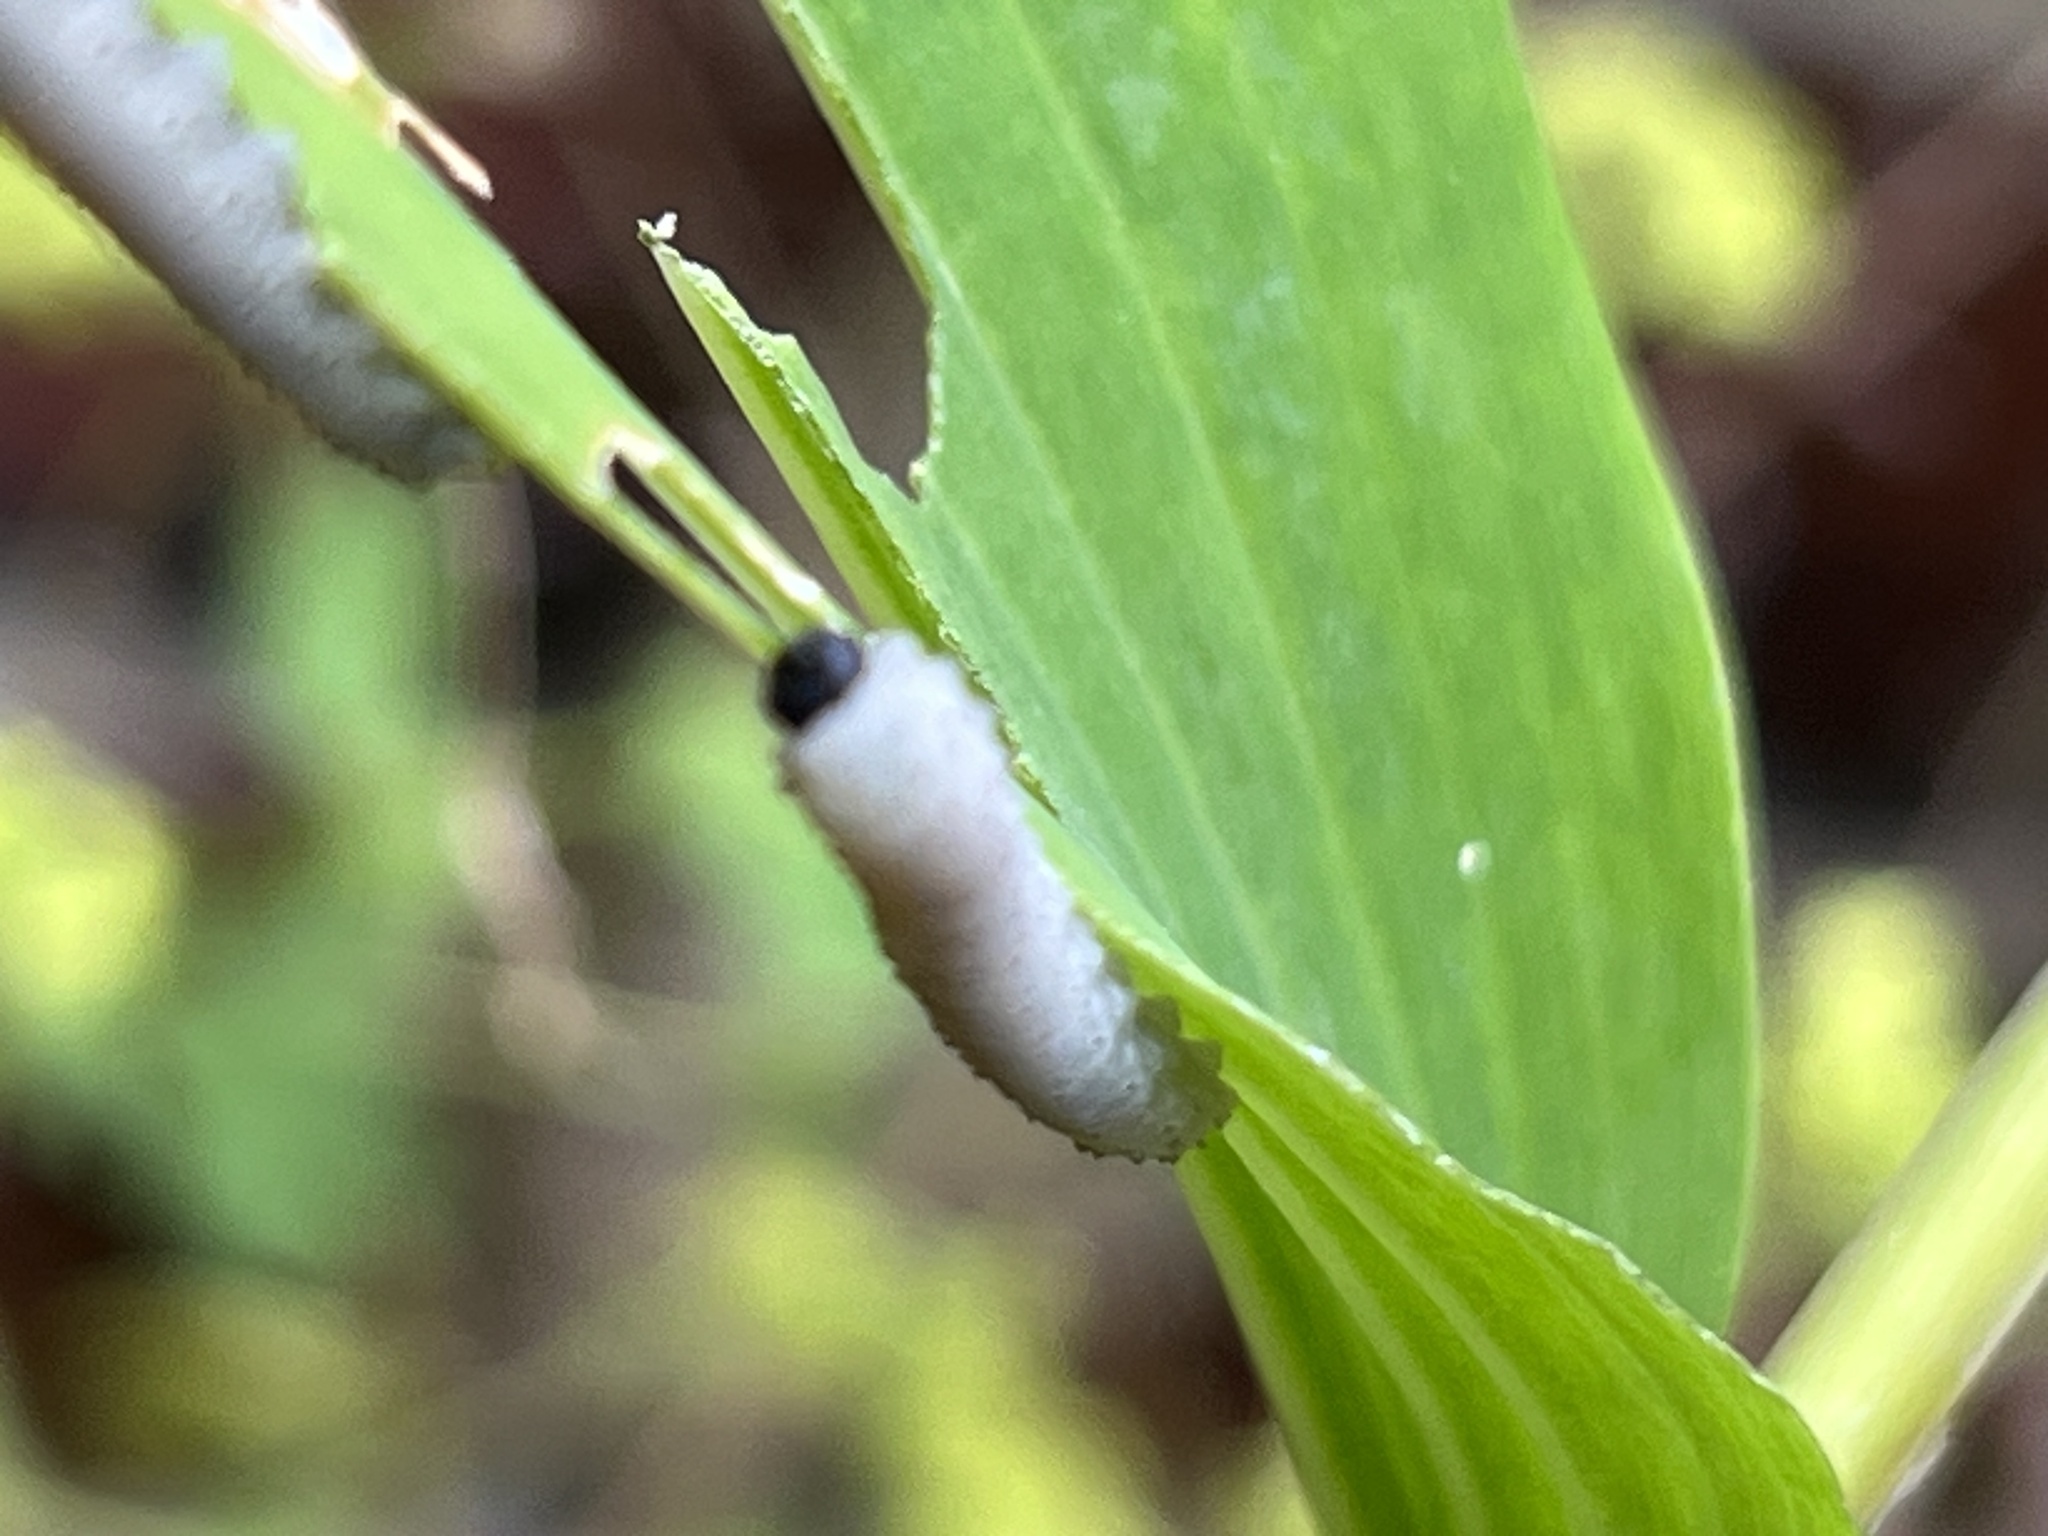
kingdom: Animalia
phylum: Arthropoda
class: Insecta
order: Hymenoptera
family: Tenthredinidae
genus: Phymatocera
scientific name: Phymatocera aterrima
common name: Solomon's-seal sawfly
